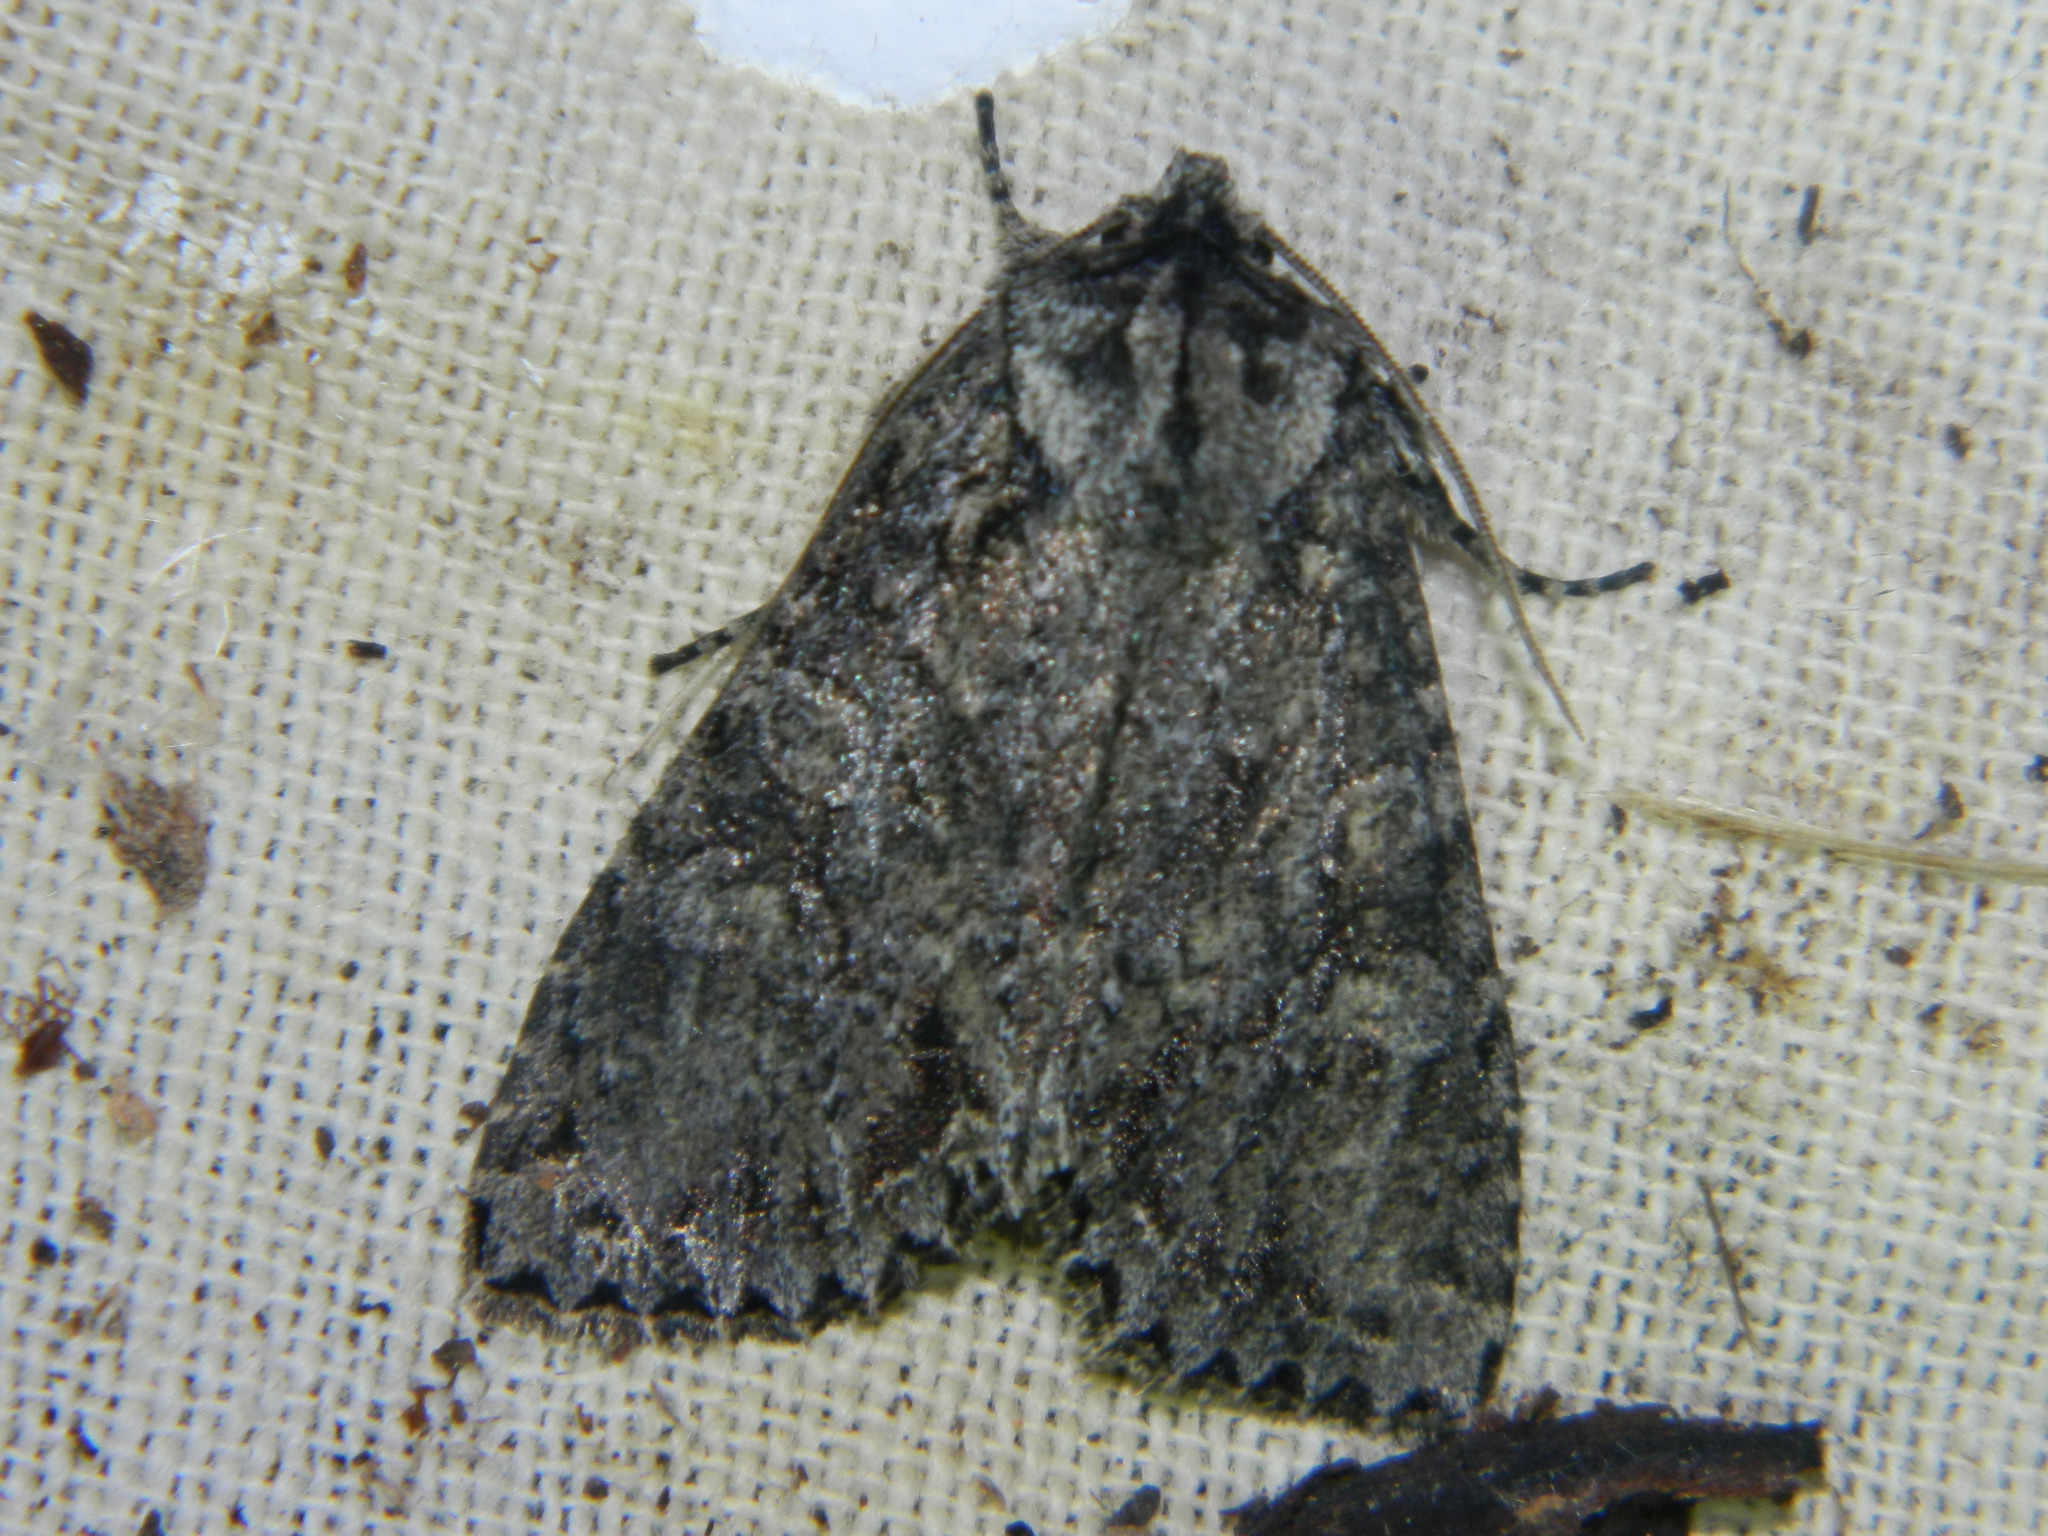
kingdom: Animalia
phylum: Arthropoda
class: Insecta
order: Lepidoptera
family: Noctuidae
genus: Polia
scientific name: Polia imbrifera
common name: Cloudy arches moth
